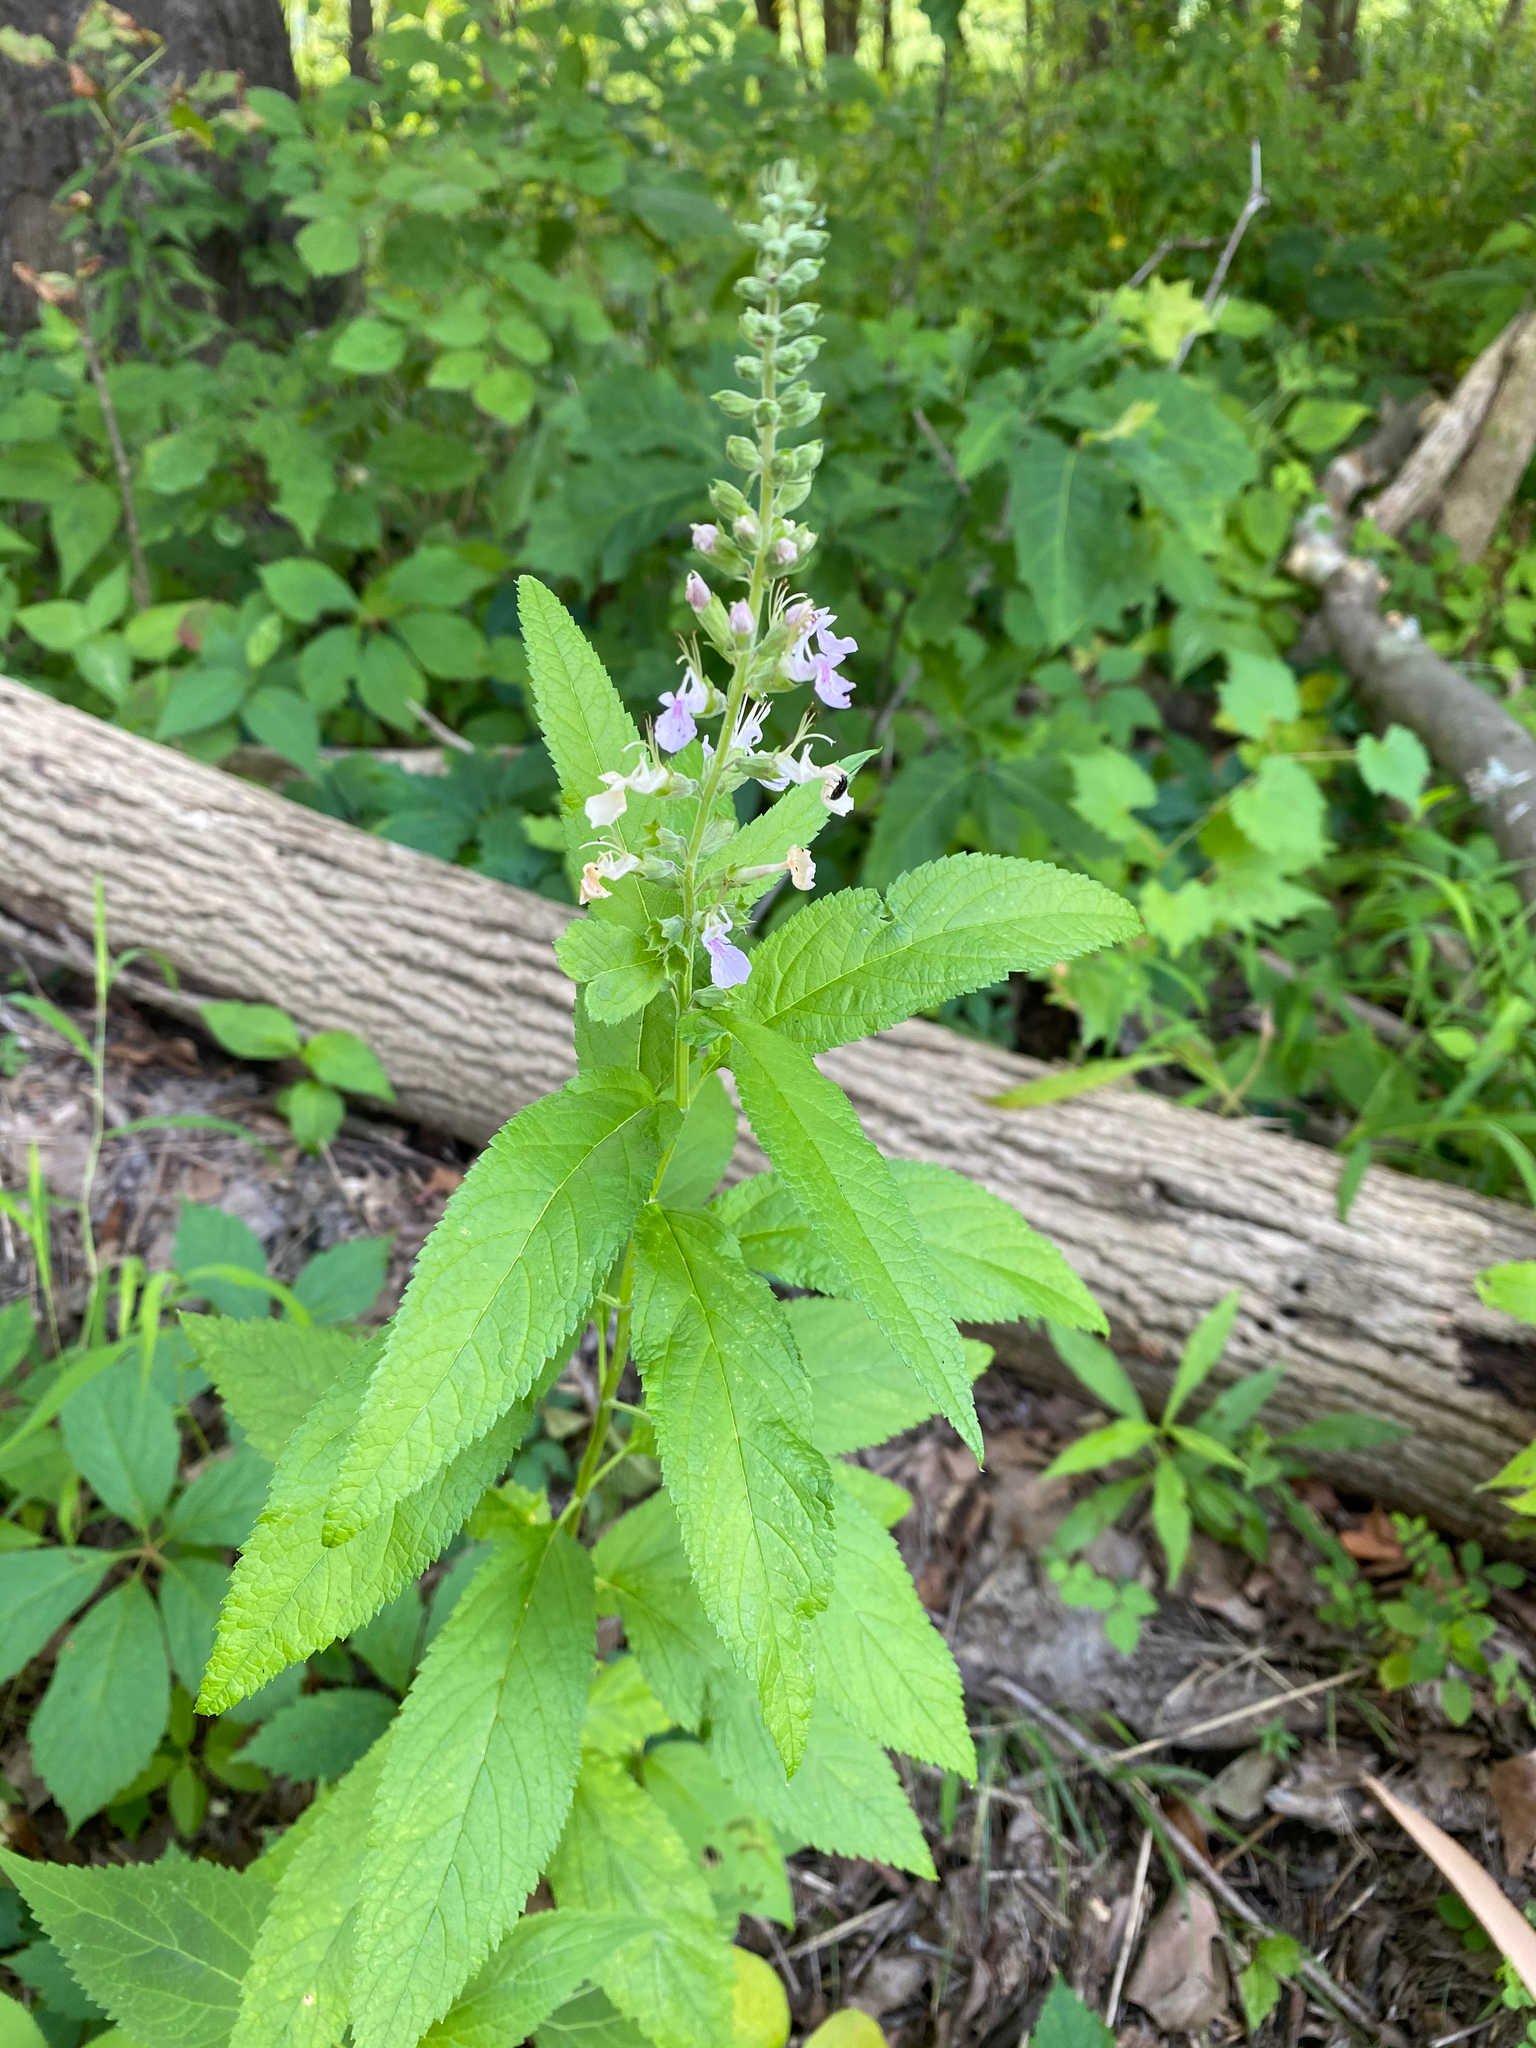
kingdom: Plantae
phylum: Tracheophyta
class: Magnoliopsida
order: Lamiales
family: Lamiaceae
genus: Teucrium
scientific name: Teucrium canadense
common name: American germander
